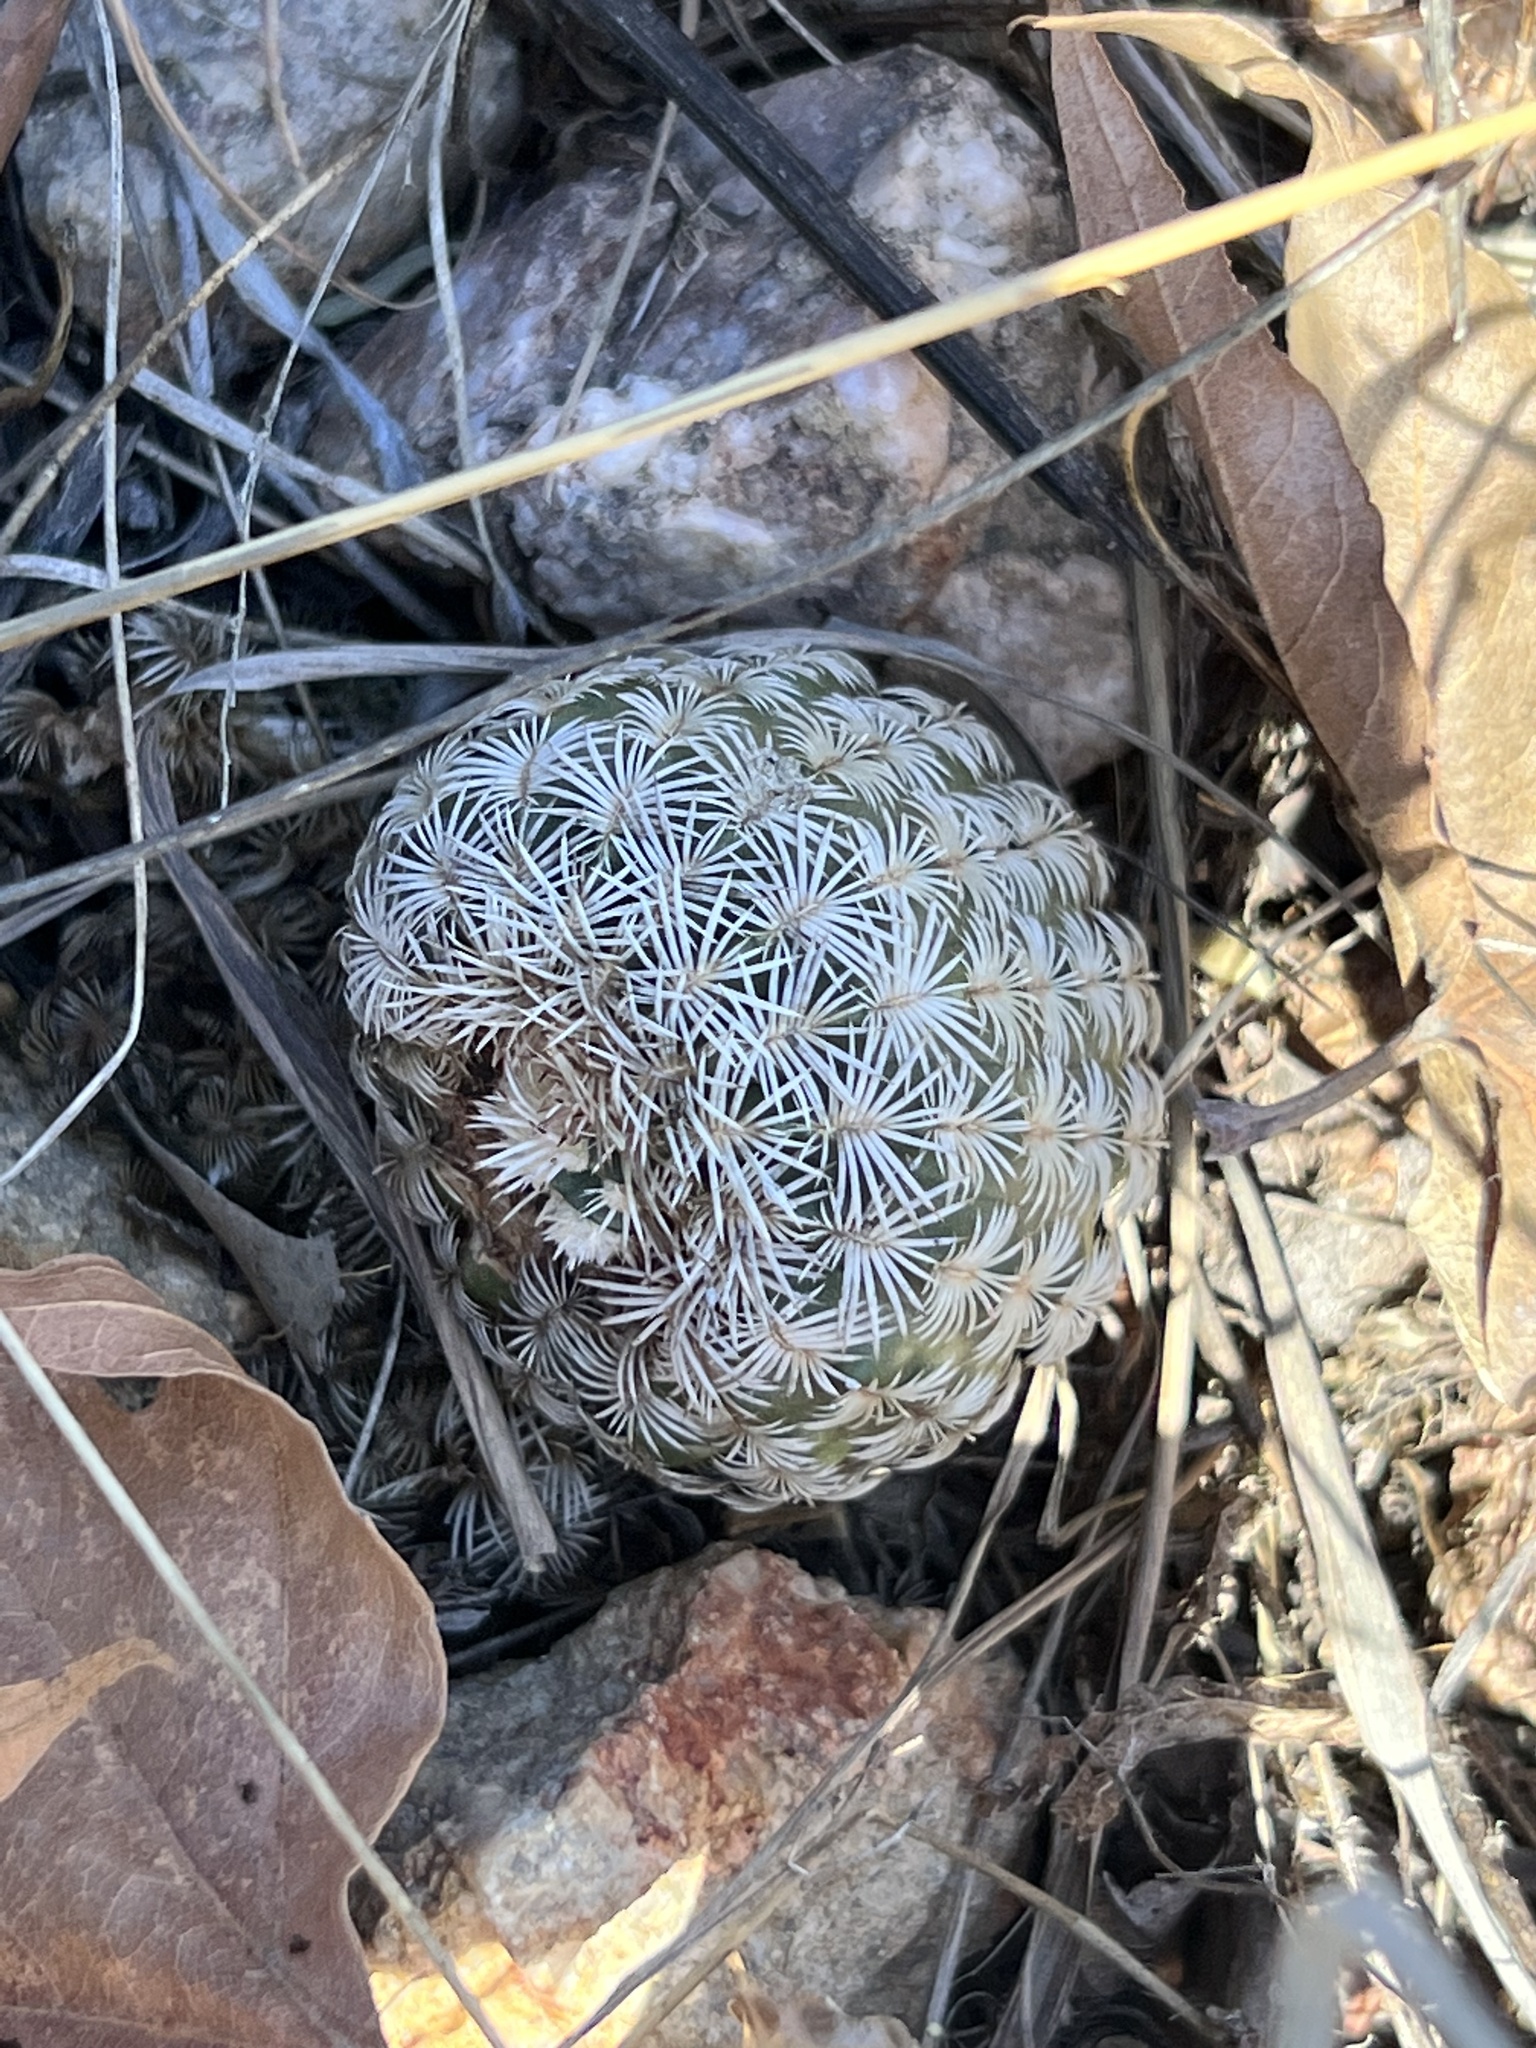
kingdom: Plantae
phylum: Tracheophyta
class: Magnoliopsida
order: Caryophyllales
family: Cactaceae
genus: Echinocereus
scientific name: Echinocereus rigidissimus
